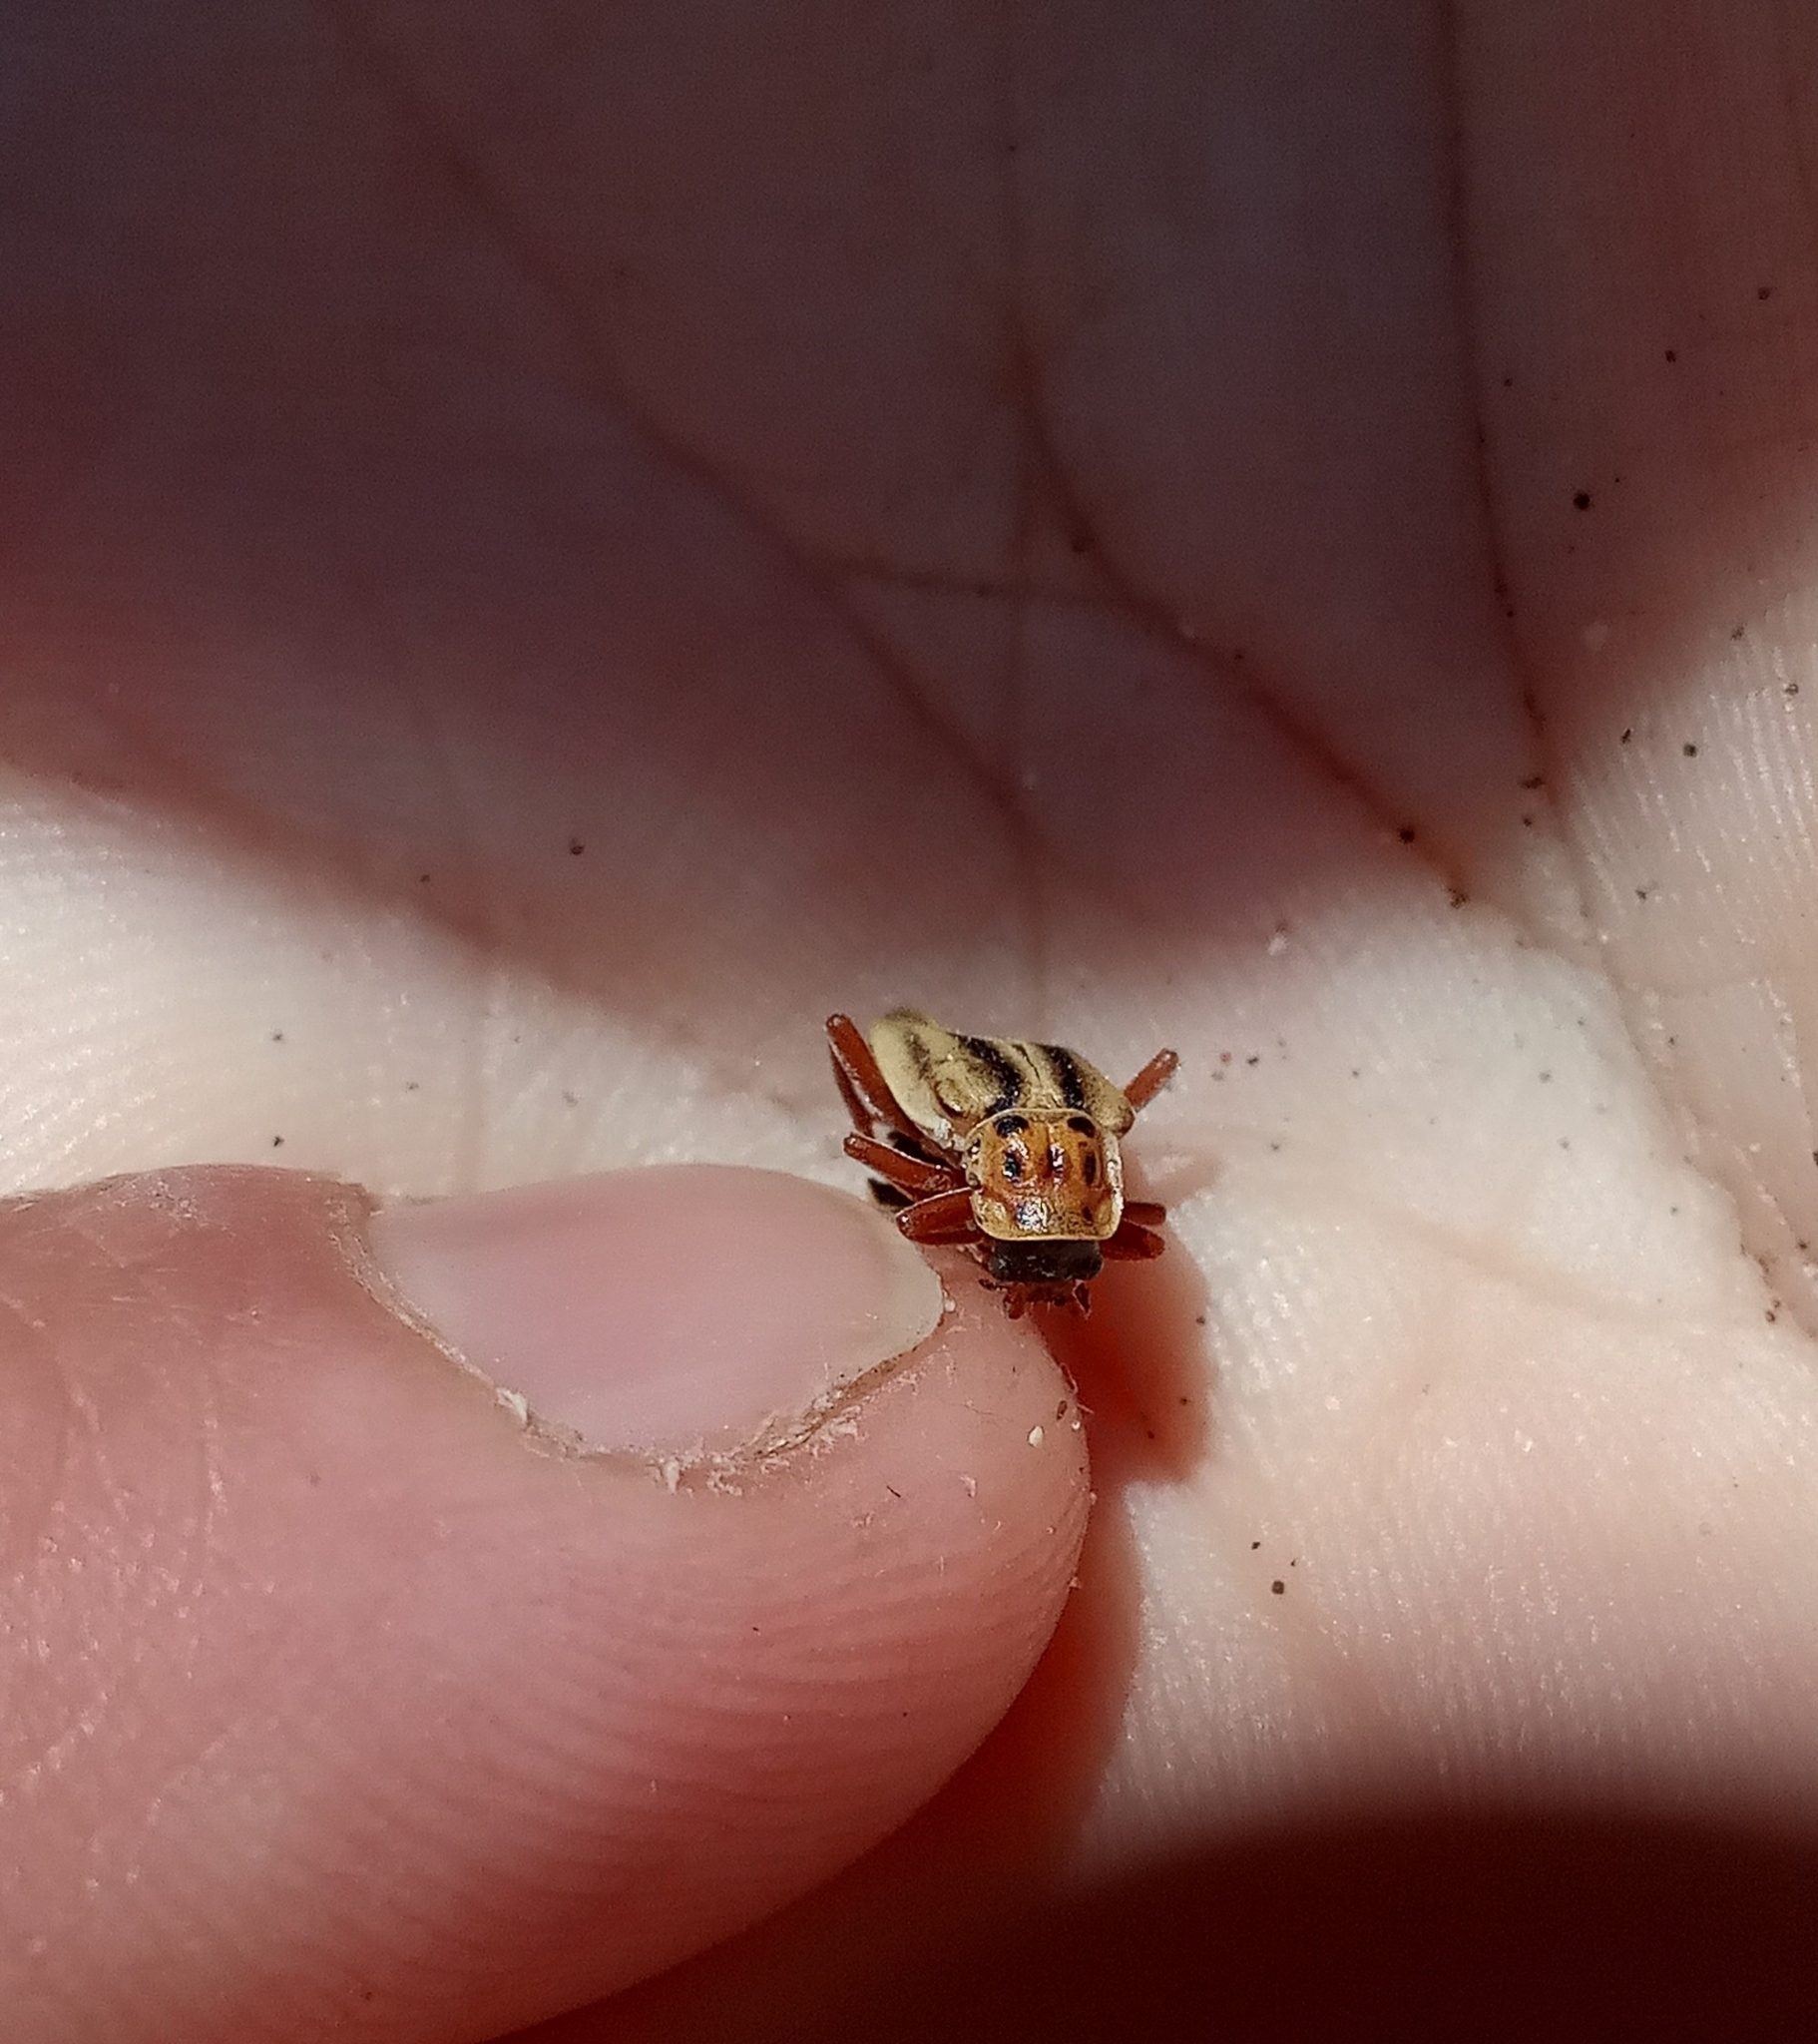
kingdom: Animalia
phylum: Arthropoda
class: Insecta
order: Coleoptera
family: Cantharidae
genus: Chauliognathus
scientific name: Chauliognathus
